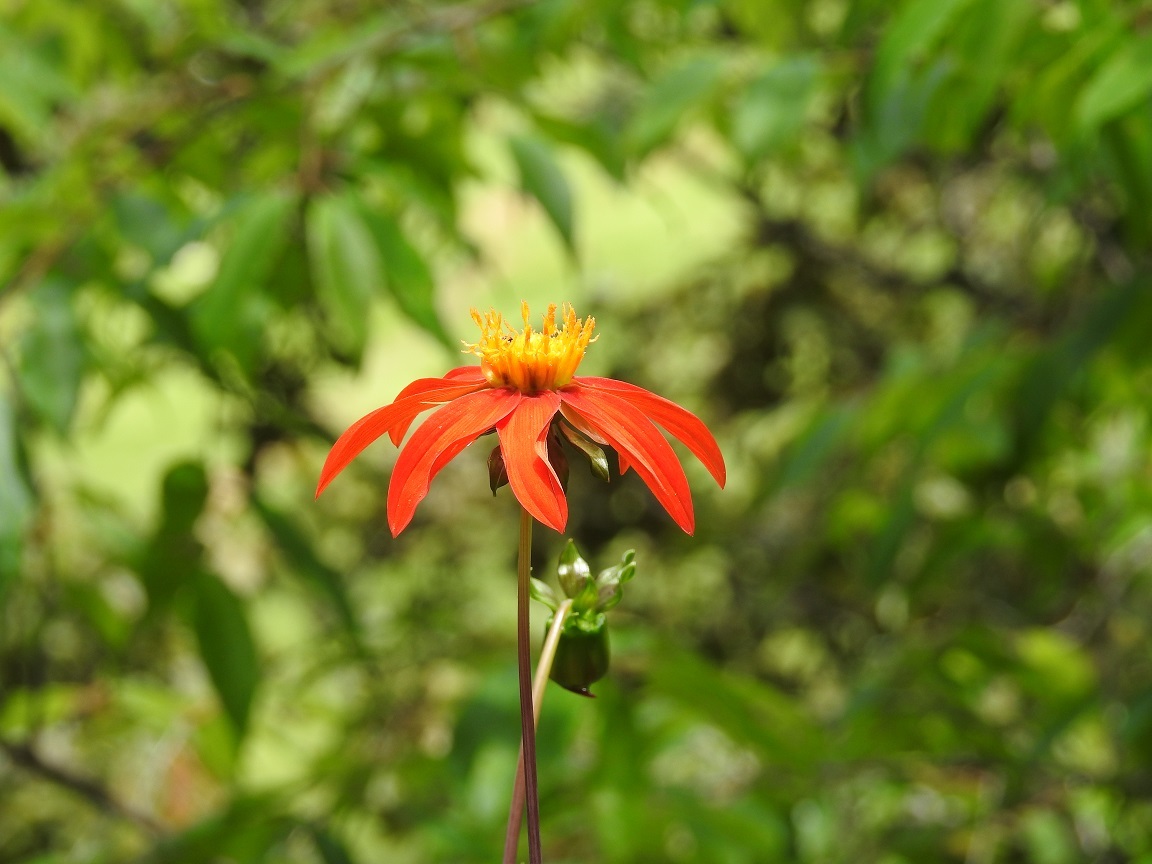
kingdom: Plantae
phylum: Tracheophyta
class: Magnoliopsida
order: Asterales
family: Asteraceae
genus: Dahlia
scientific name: Dahlia coccinea
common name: Red dahlia
